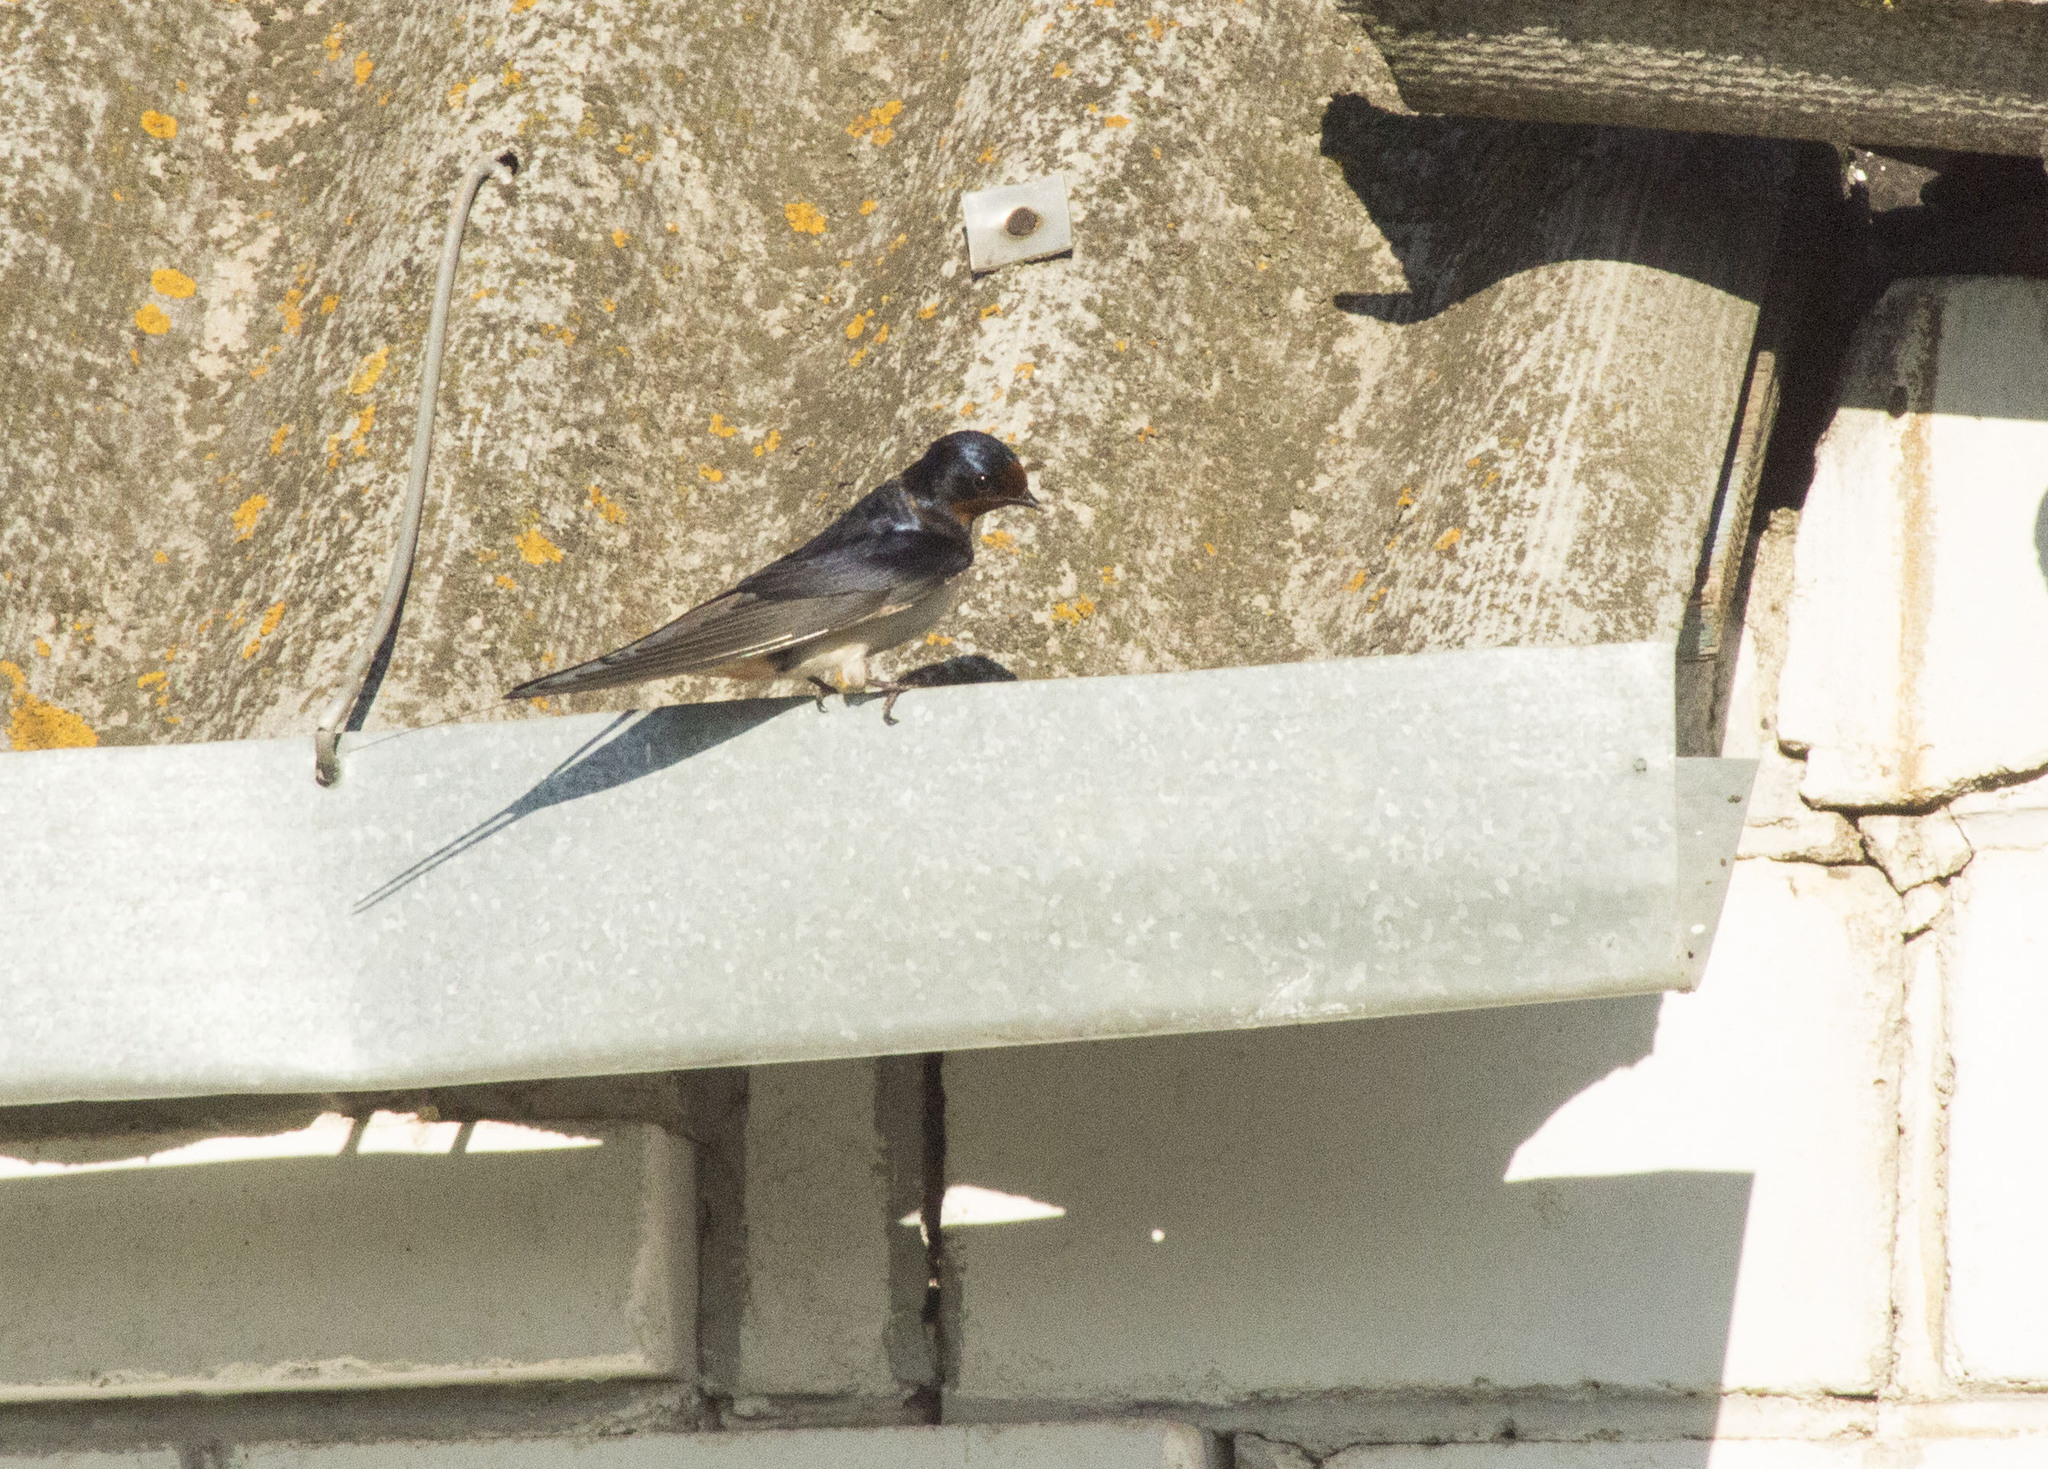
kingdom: Animalia
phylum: Chordata
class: Aves
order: Passeriformes
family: Hirundinidae
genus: Hirundo
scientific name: Hirundo rustica
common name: Barn swallow
